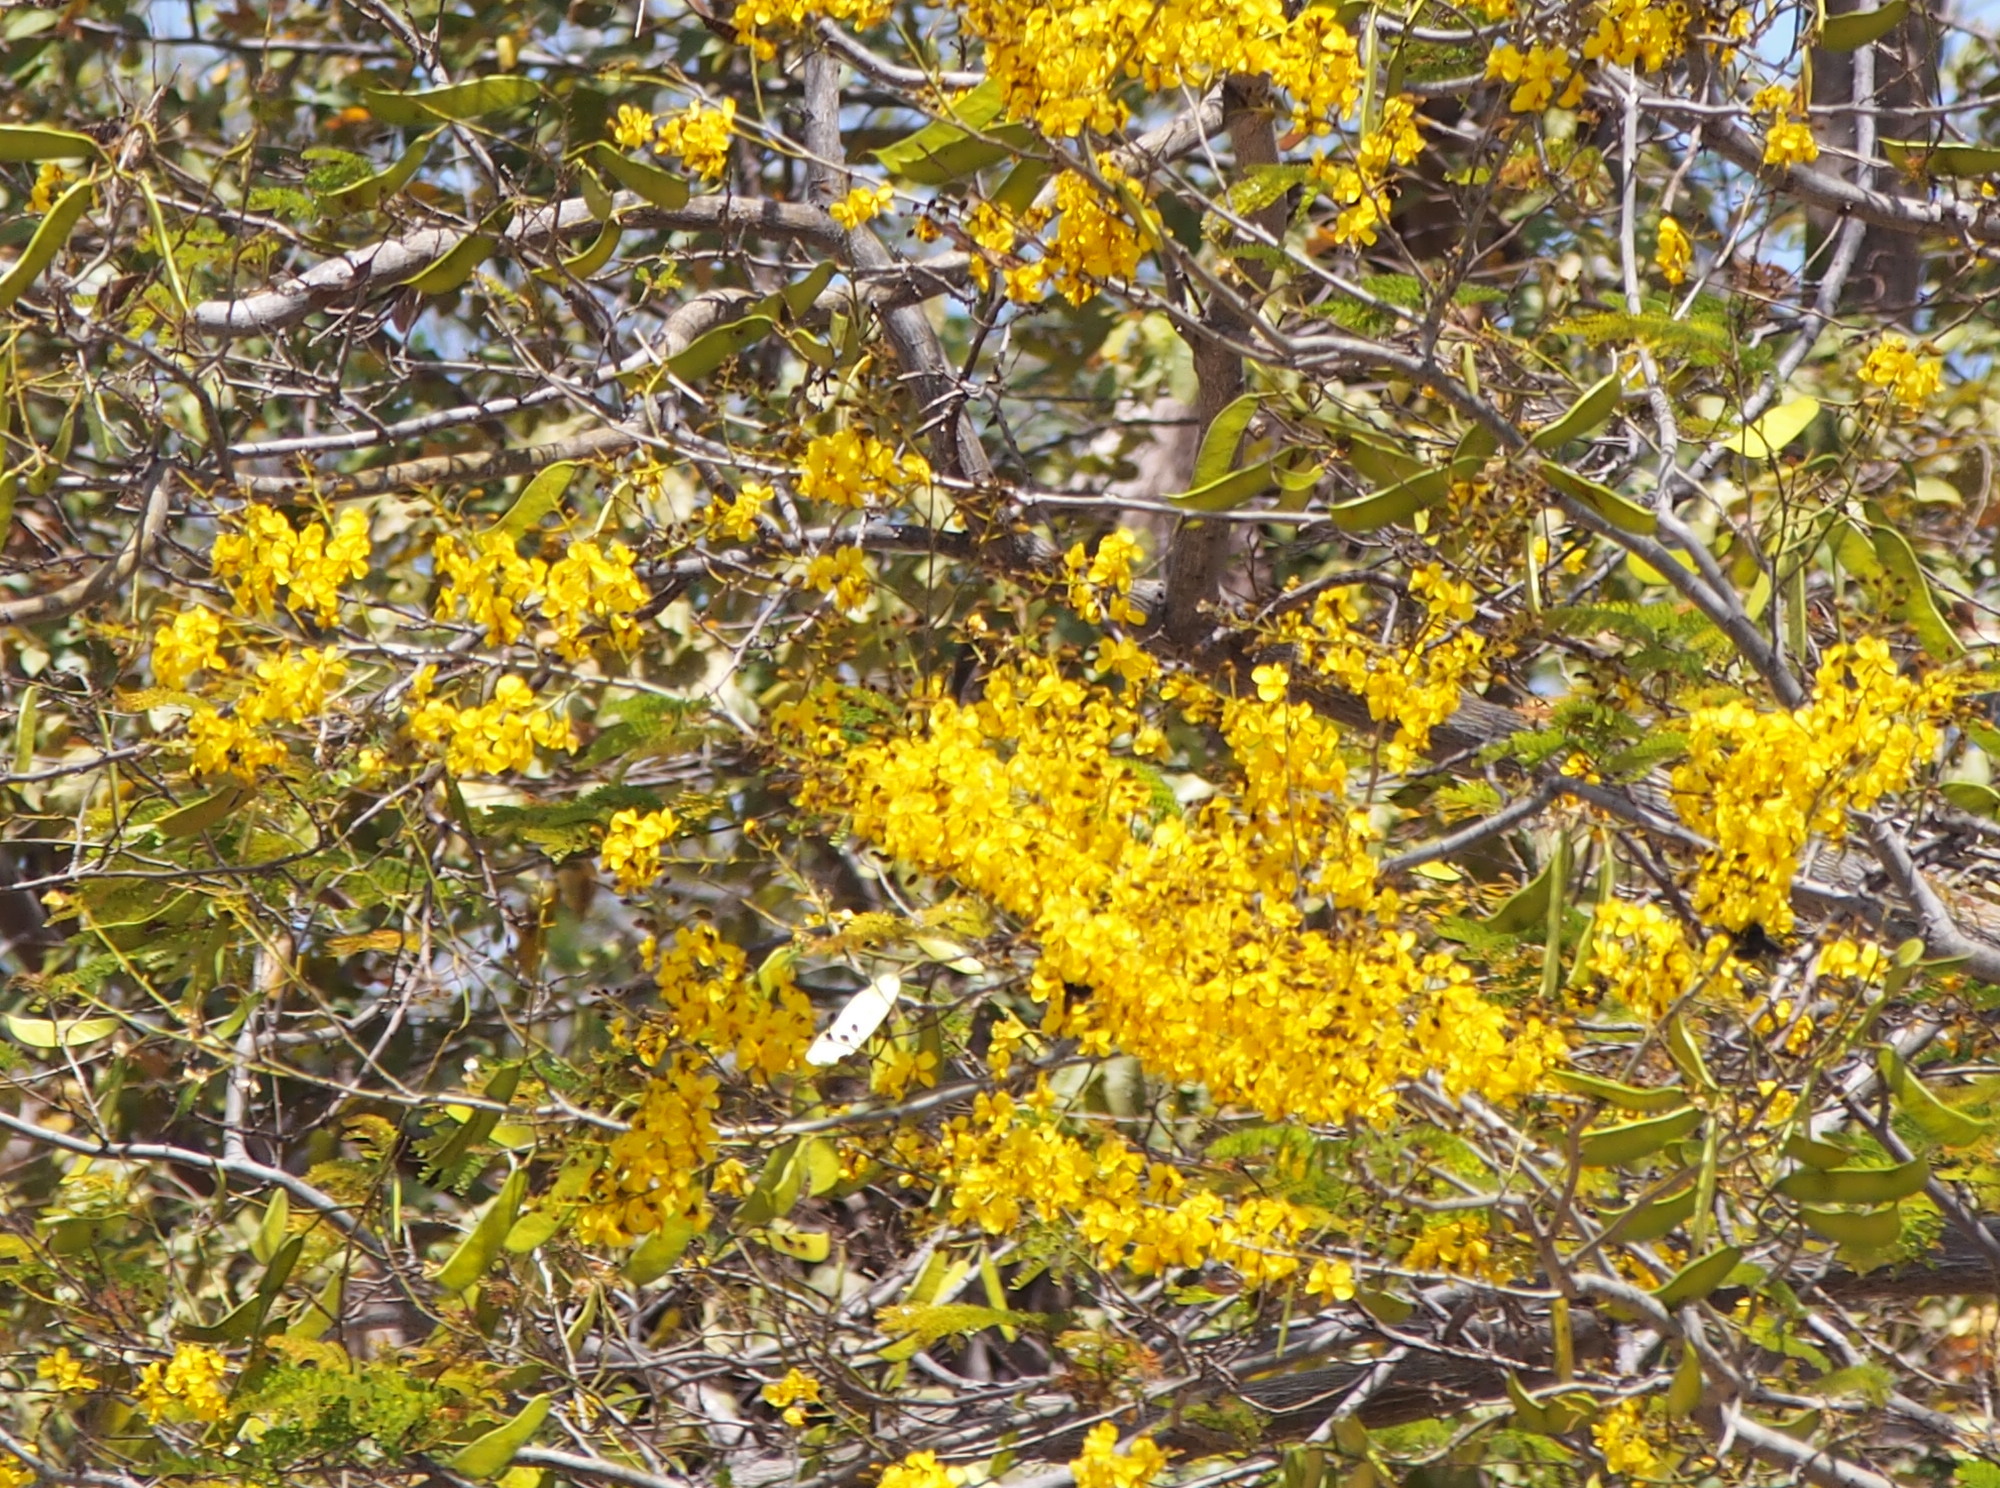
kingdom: Plantae
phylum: Tracheophyta
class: Magnoliopsida
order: Fabales
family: Fabaceae
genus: Cenostigma
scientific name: Cenostigma eriostachys
